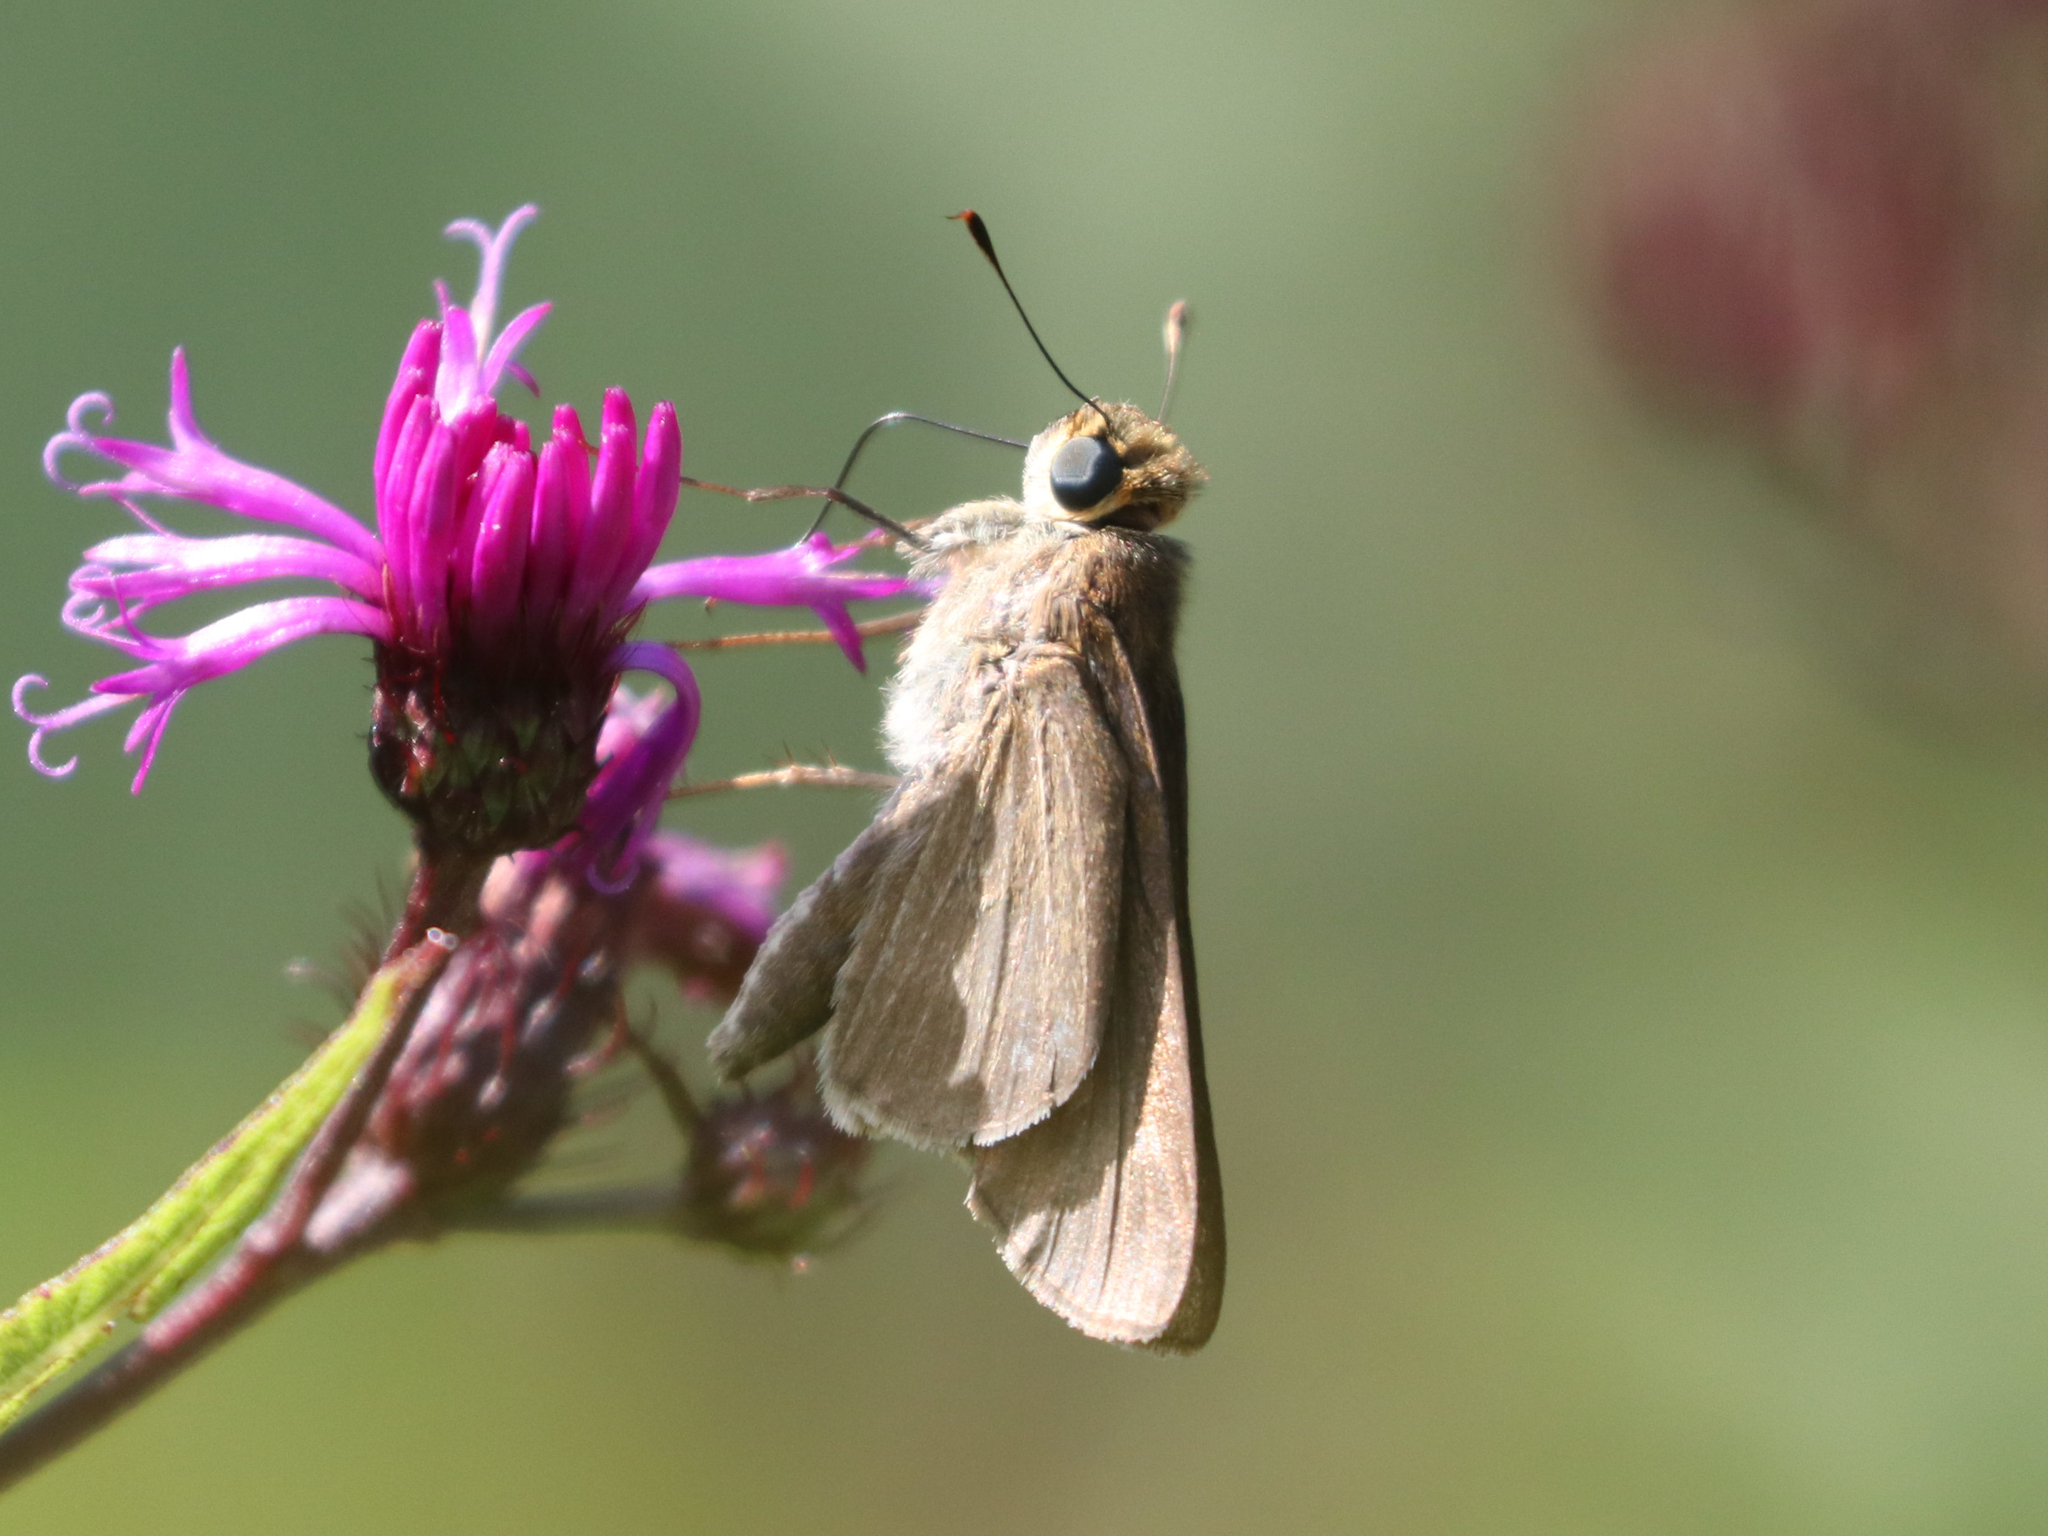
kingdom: Animalia
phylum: Arthropoda
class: Insecta
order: Lepidoptera
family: Hesperiidae
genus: Panoquina
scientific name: Panoquina ocola
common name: Ocola skipper
